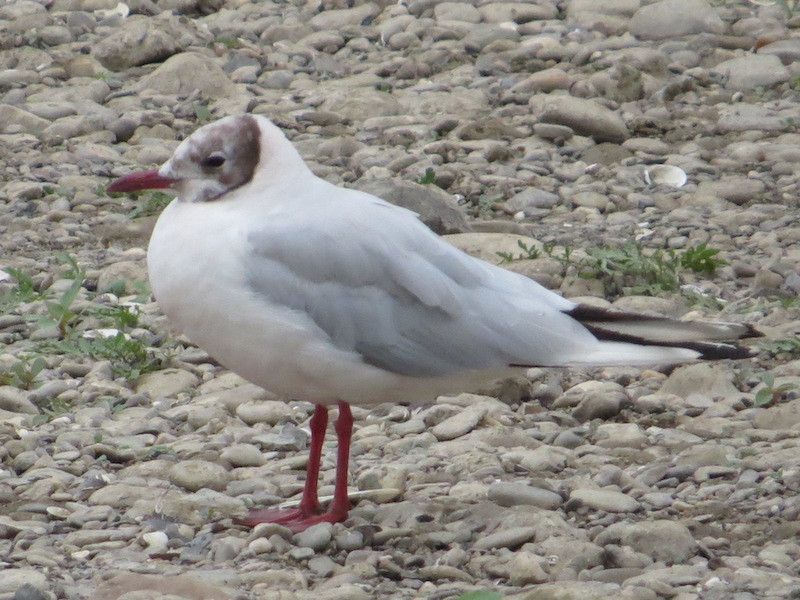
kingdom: Animalia
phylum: Chordata
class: Aves
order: Charadriiformes
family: Laridae
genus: Chroicocephalus
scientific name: Chroicocephalus ridibundus
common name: Black-headed gull
